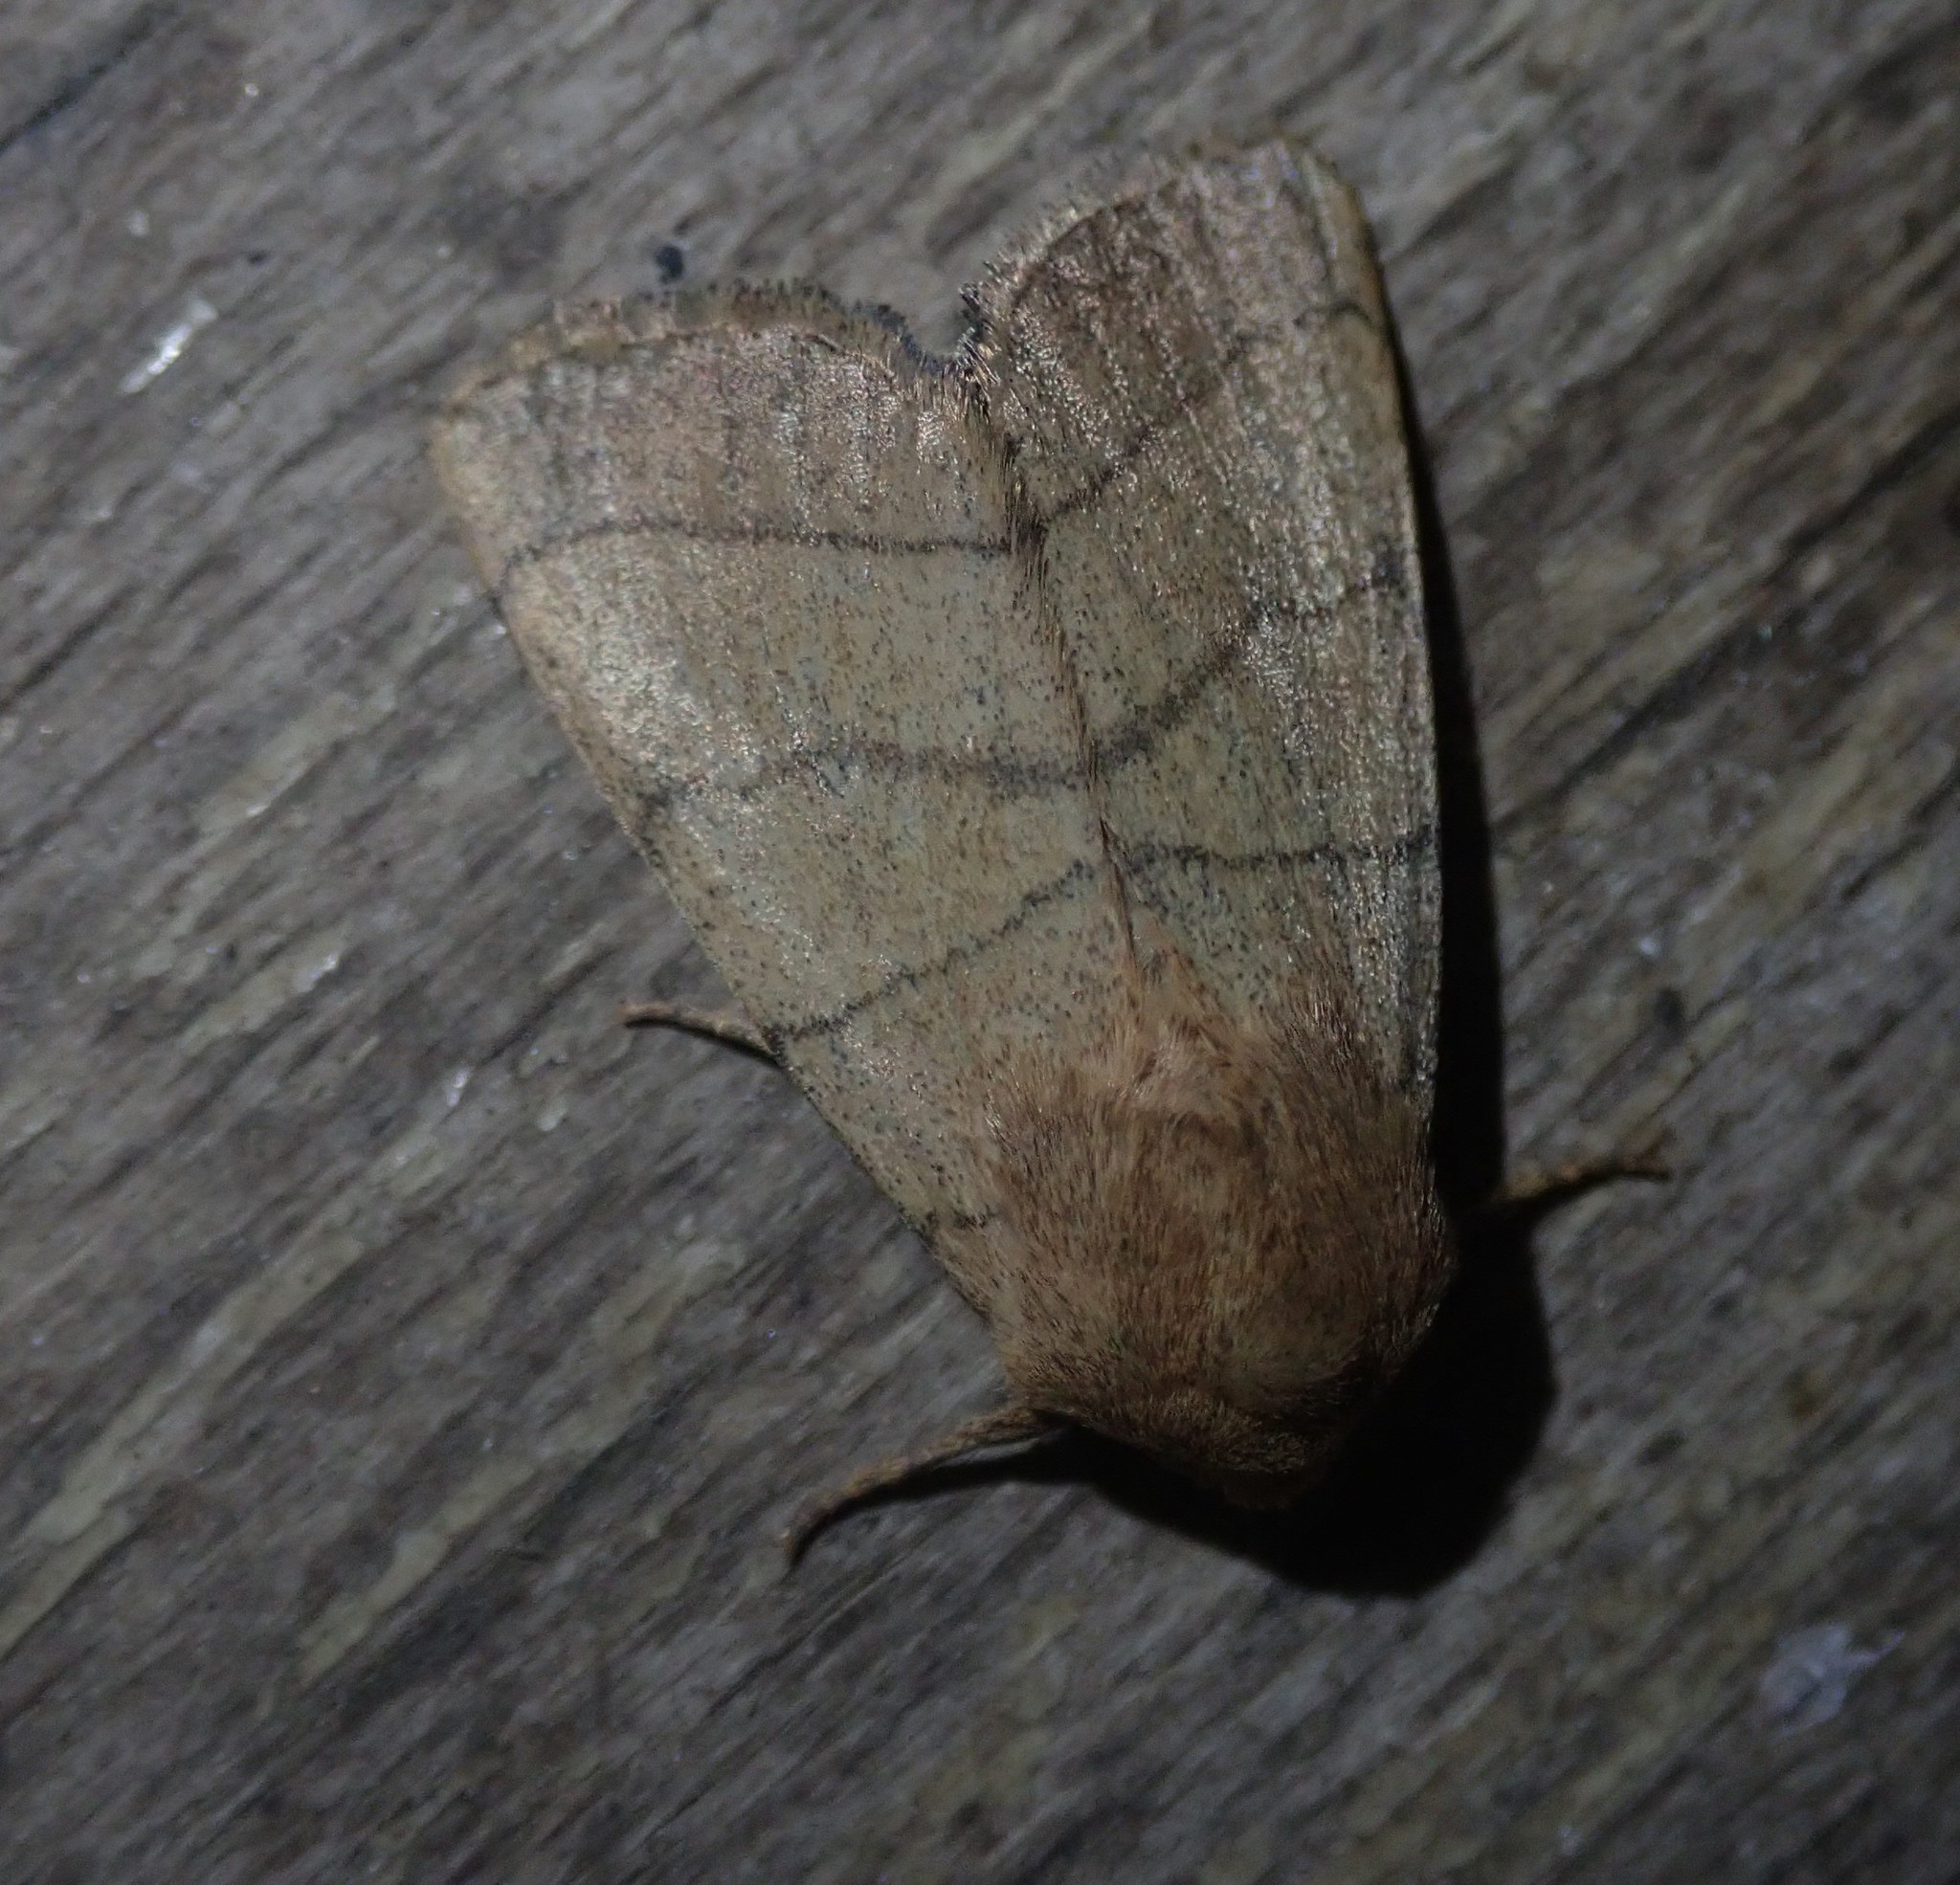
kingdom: Animalia
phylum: Arthropoda
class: Insecta
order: Lepidoptera
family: Noctuidae
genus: Charanyca
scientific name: Charanyca trigrammica
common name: Treble lines
